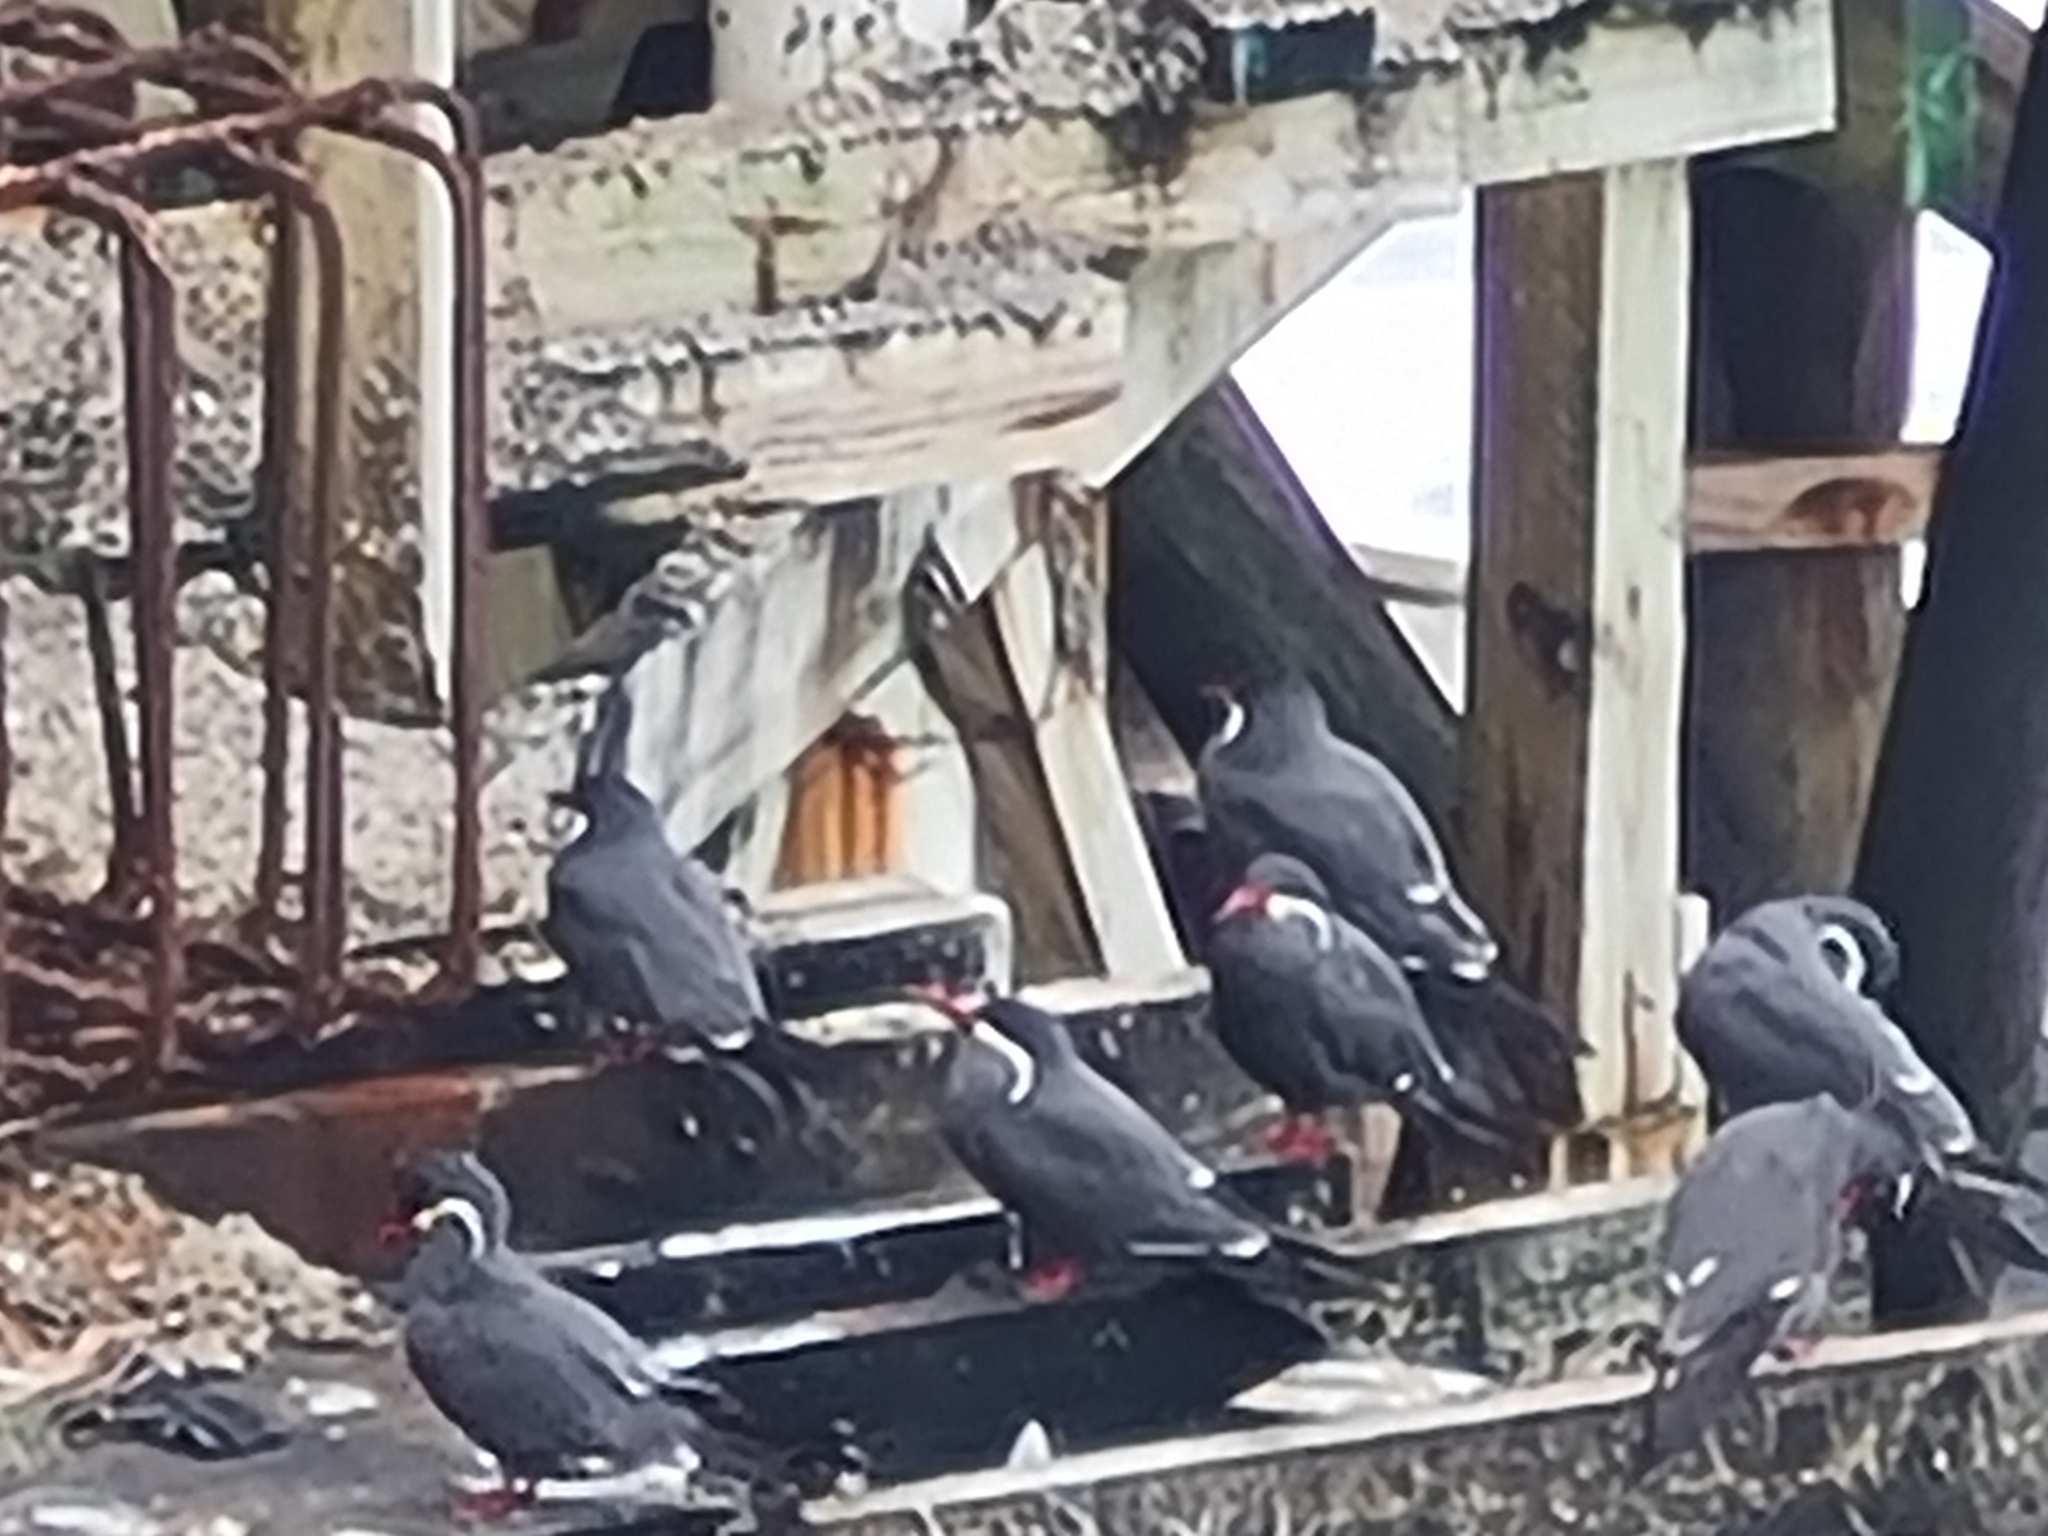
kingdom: Animalia
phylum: Chordata
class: Aves
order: Charadriiformes
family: Laridae
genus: Larosterna
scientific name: Larosterna inca
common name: Inca tern
